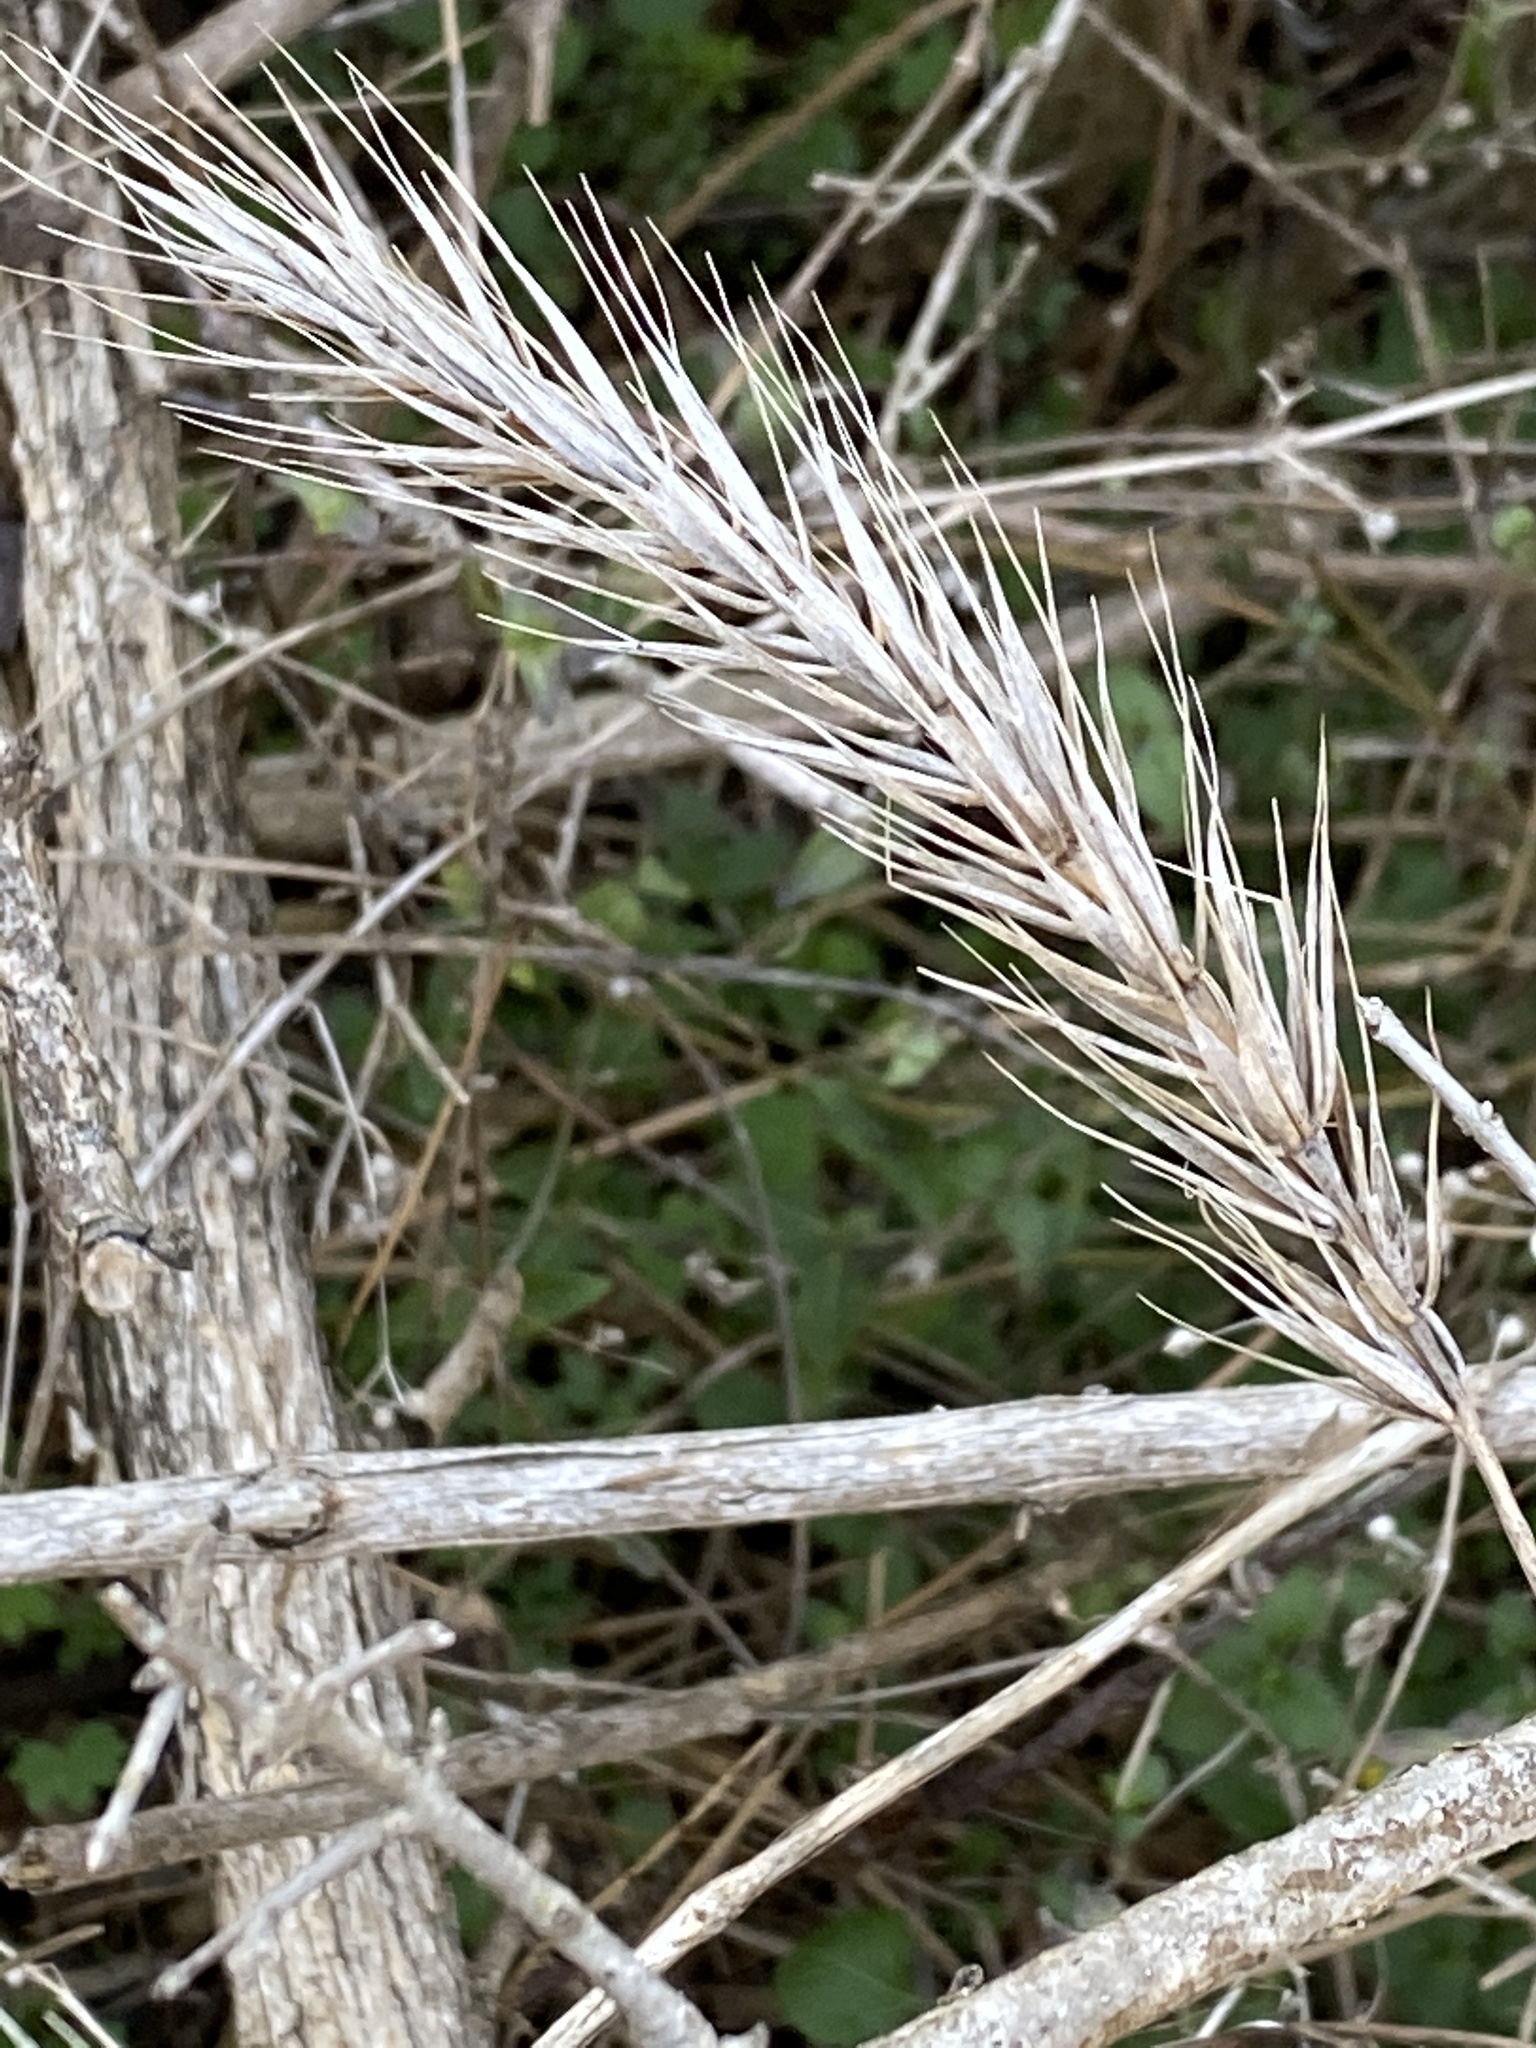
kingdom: Plantae
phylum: Tracheophyta
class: Liliopsida
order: Poales
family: Poaceae
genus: Elymus
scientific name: Elymus virginicus
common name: Common eastern wildrye
